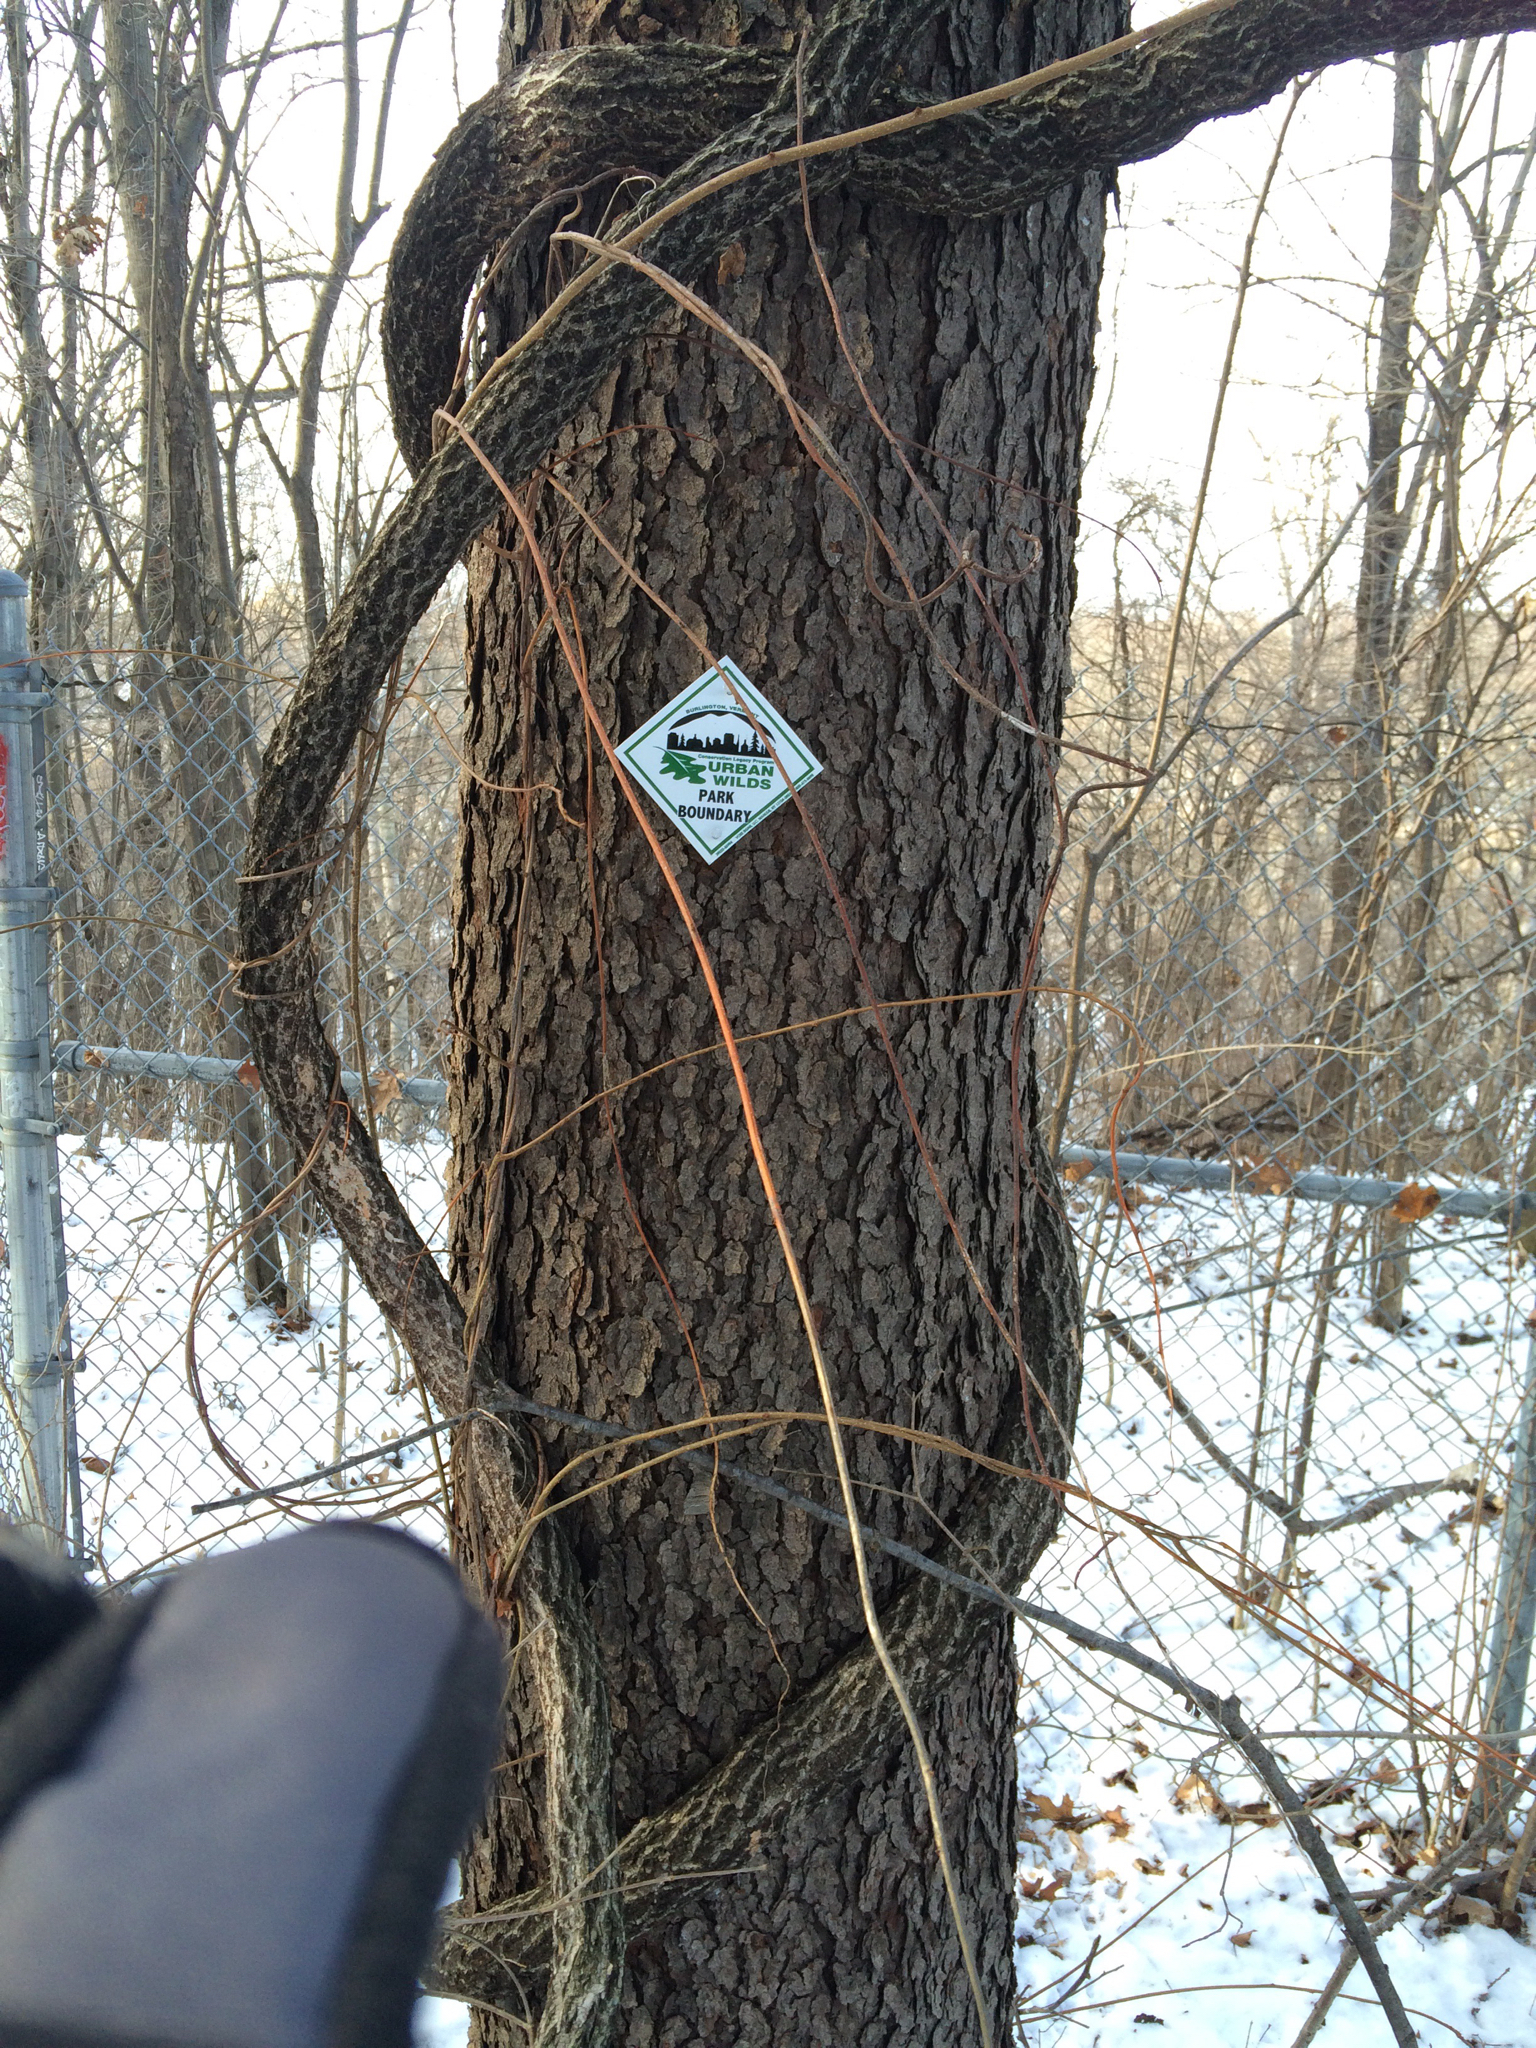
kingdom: Plantae
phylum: Tracheophyta
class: Magnoliopsida
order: Rosales
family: Rosaceae
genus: Prunus
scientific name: Prunus serotina
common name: Black cherry
